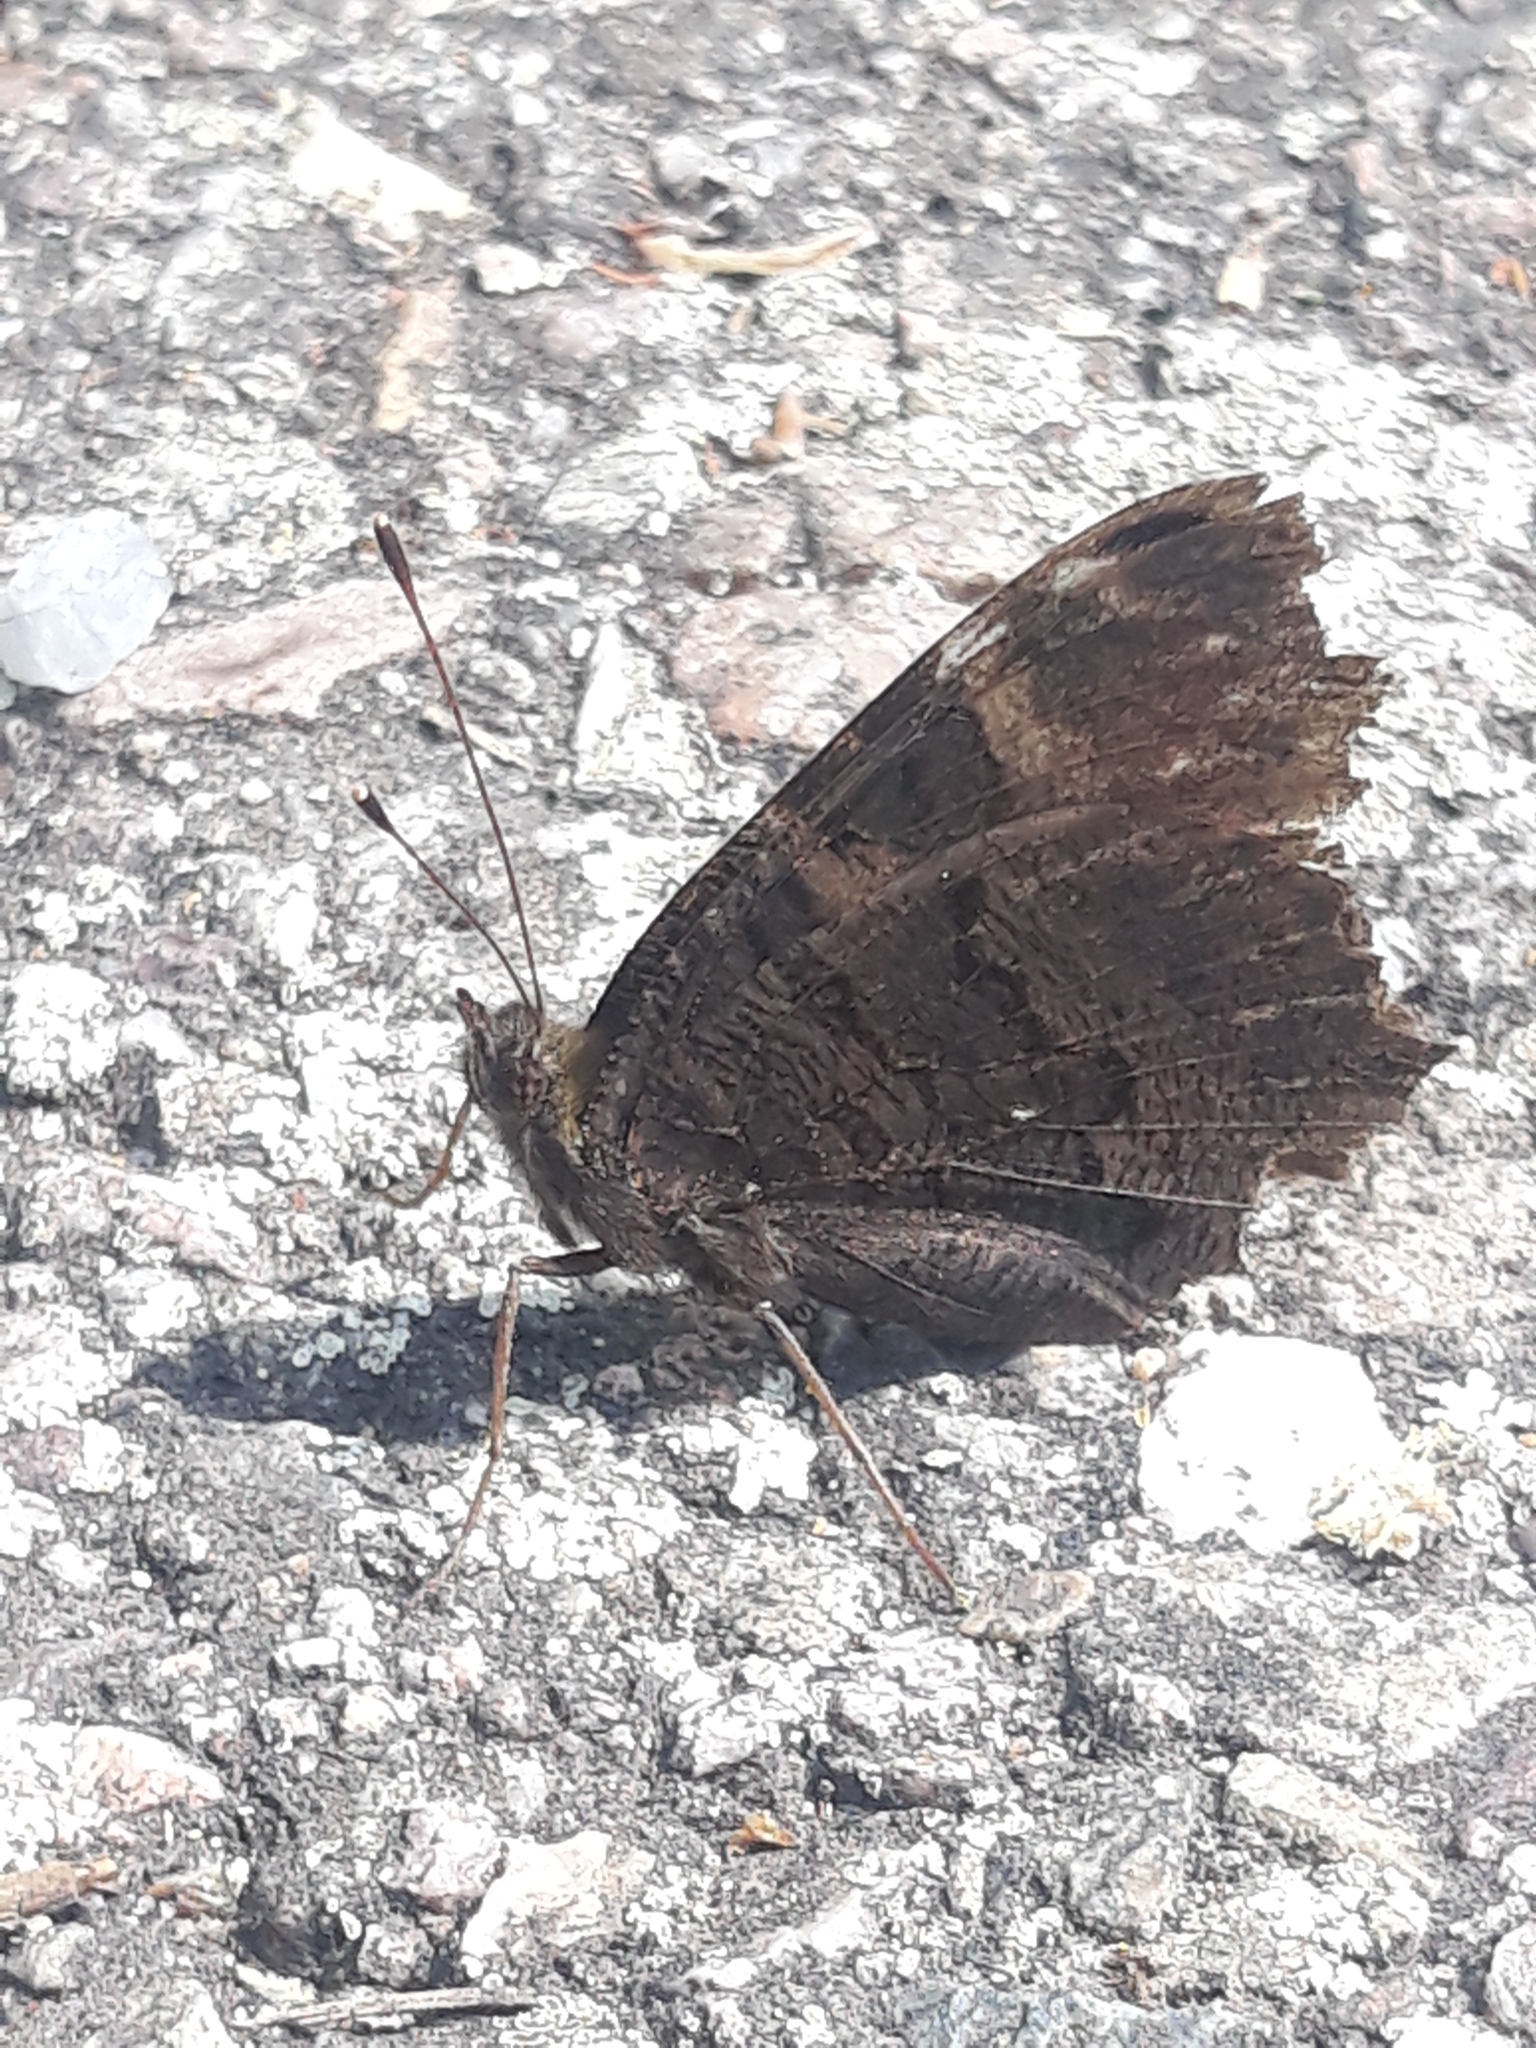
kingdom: Animalia
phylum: Arthropoda
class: Insecta
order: Lepidoptera
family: Nymphalidae
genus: Aglais
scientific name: Aglais io
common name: Peacock
